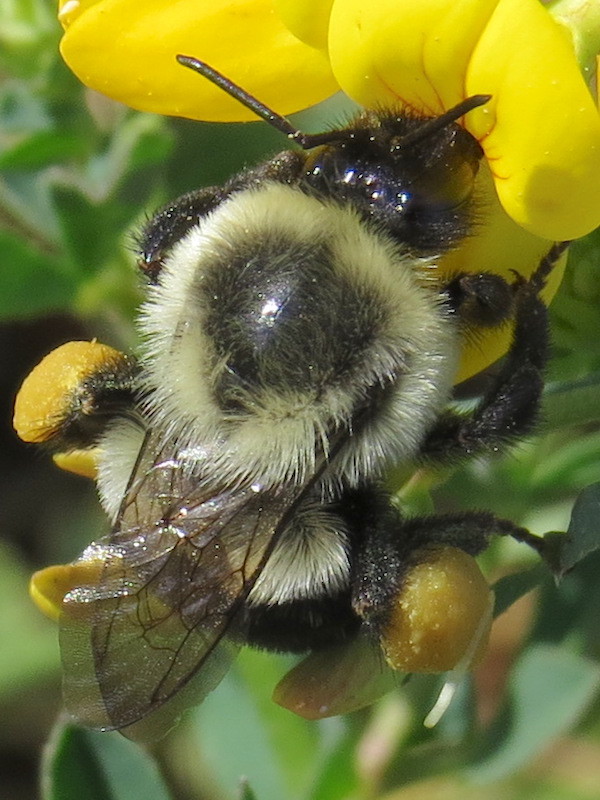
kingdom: Animalia
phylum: Arthropoda
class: Insecta
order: Hymenoptera
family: Apidae
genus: Bombus
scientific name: Bombus impatiens
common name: Common eastern bumble bee
